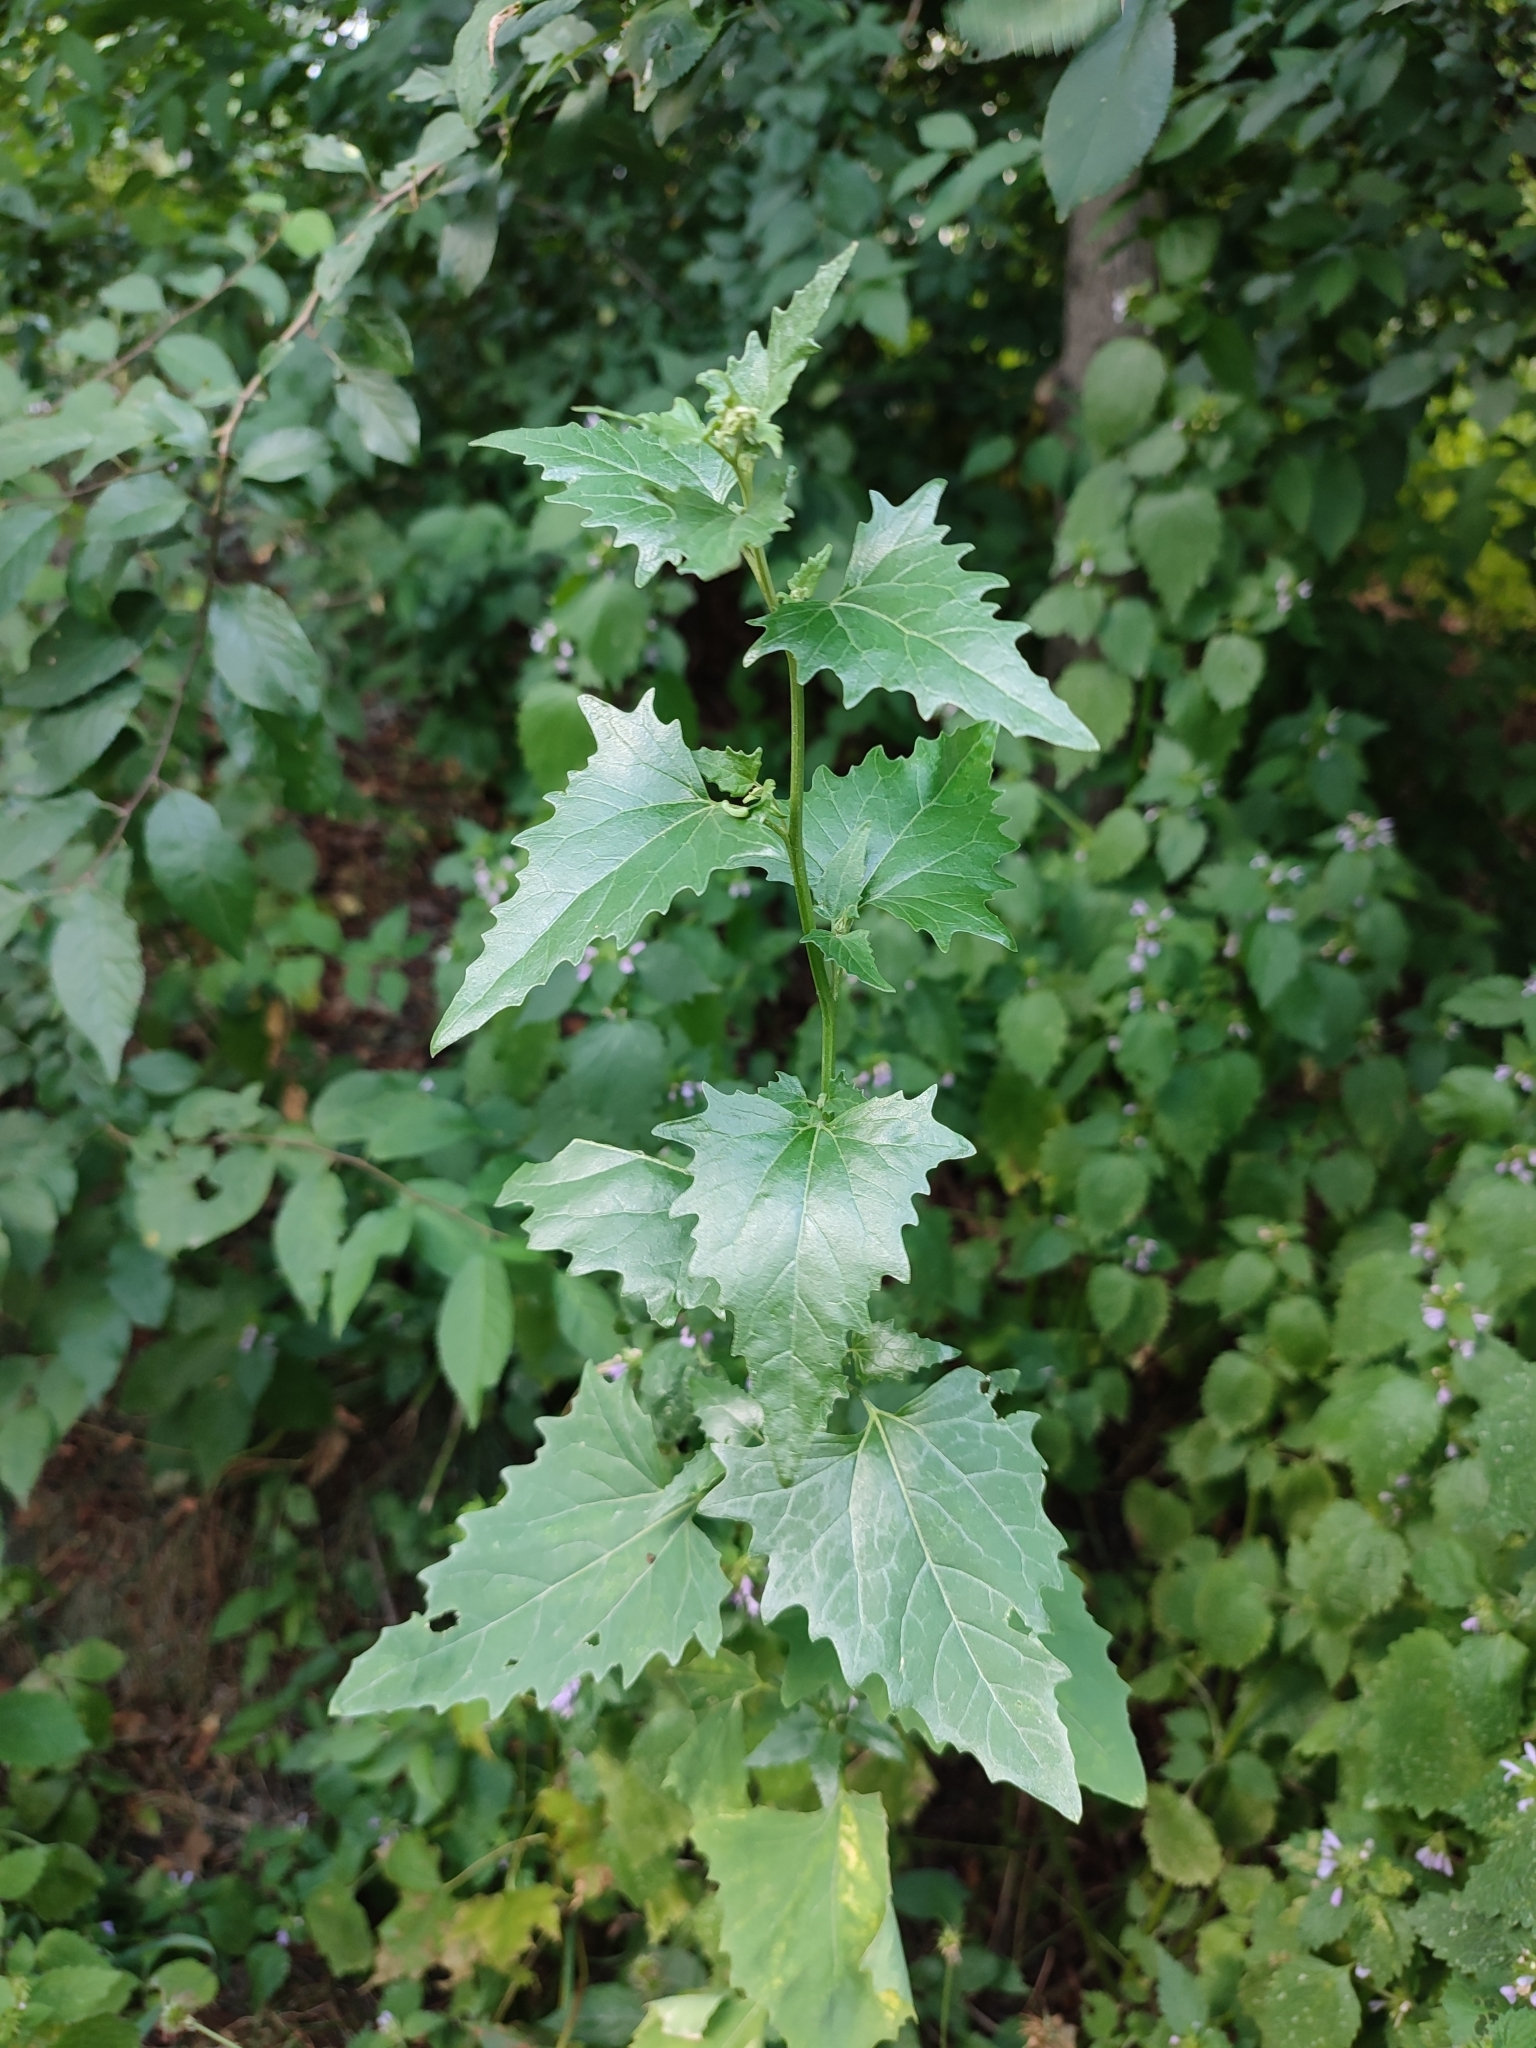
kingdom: Plantae
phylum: Tracheophyta
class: Magnoliopsida
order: Caryophyllales
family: Amaranthaceae
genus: Atriplex
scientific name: Atriplex sagittata
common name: Purple orache
